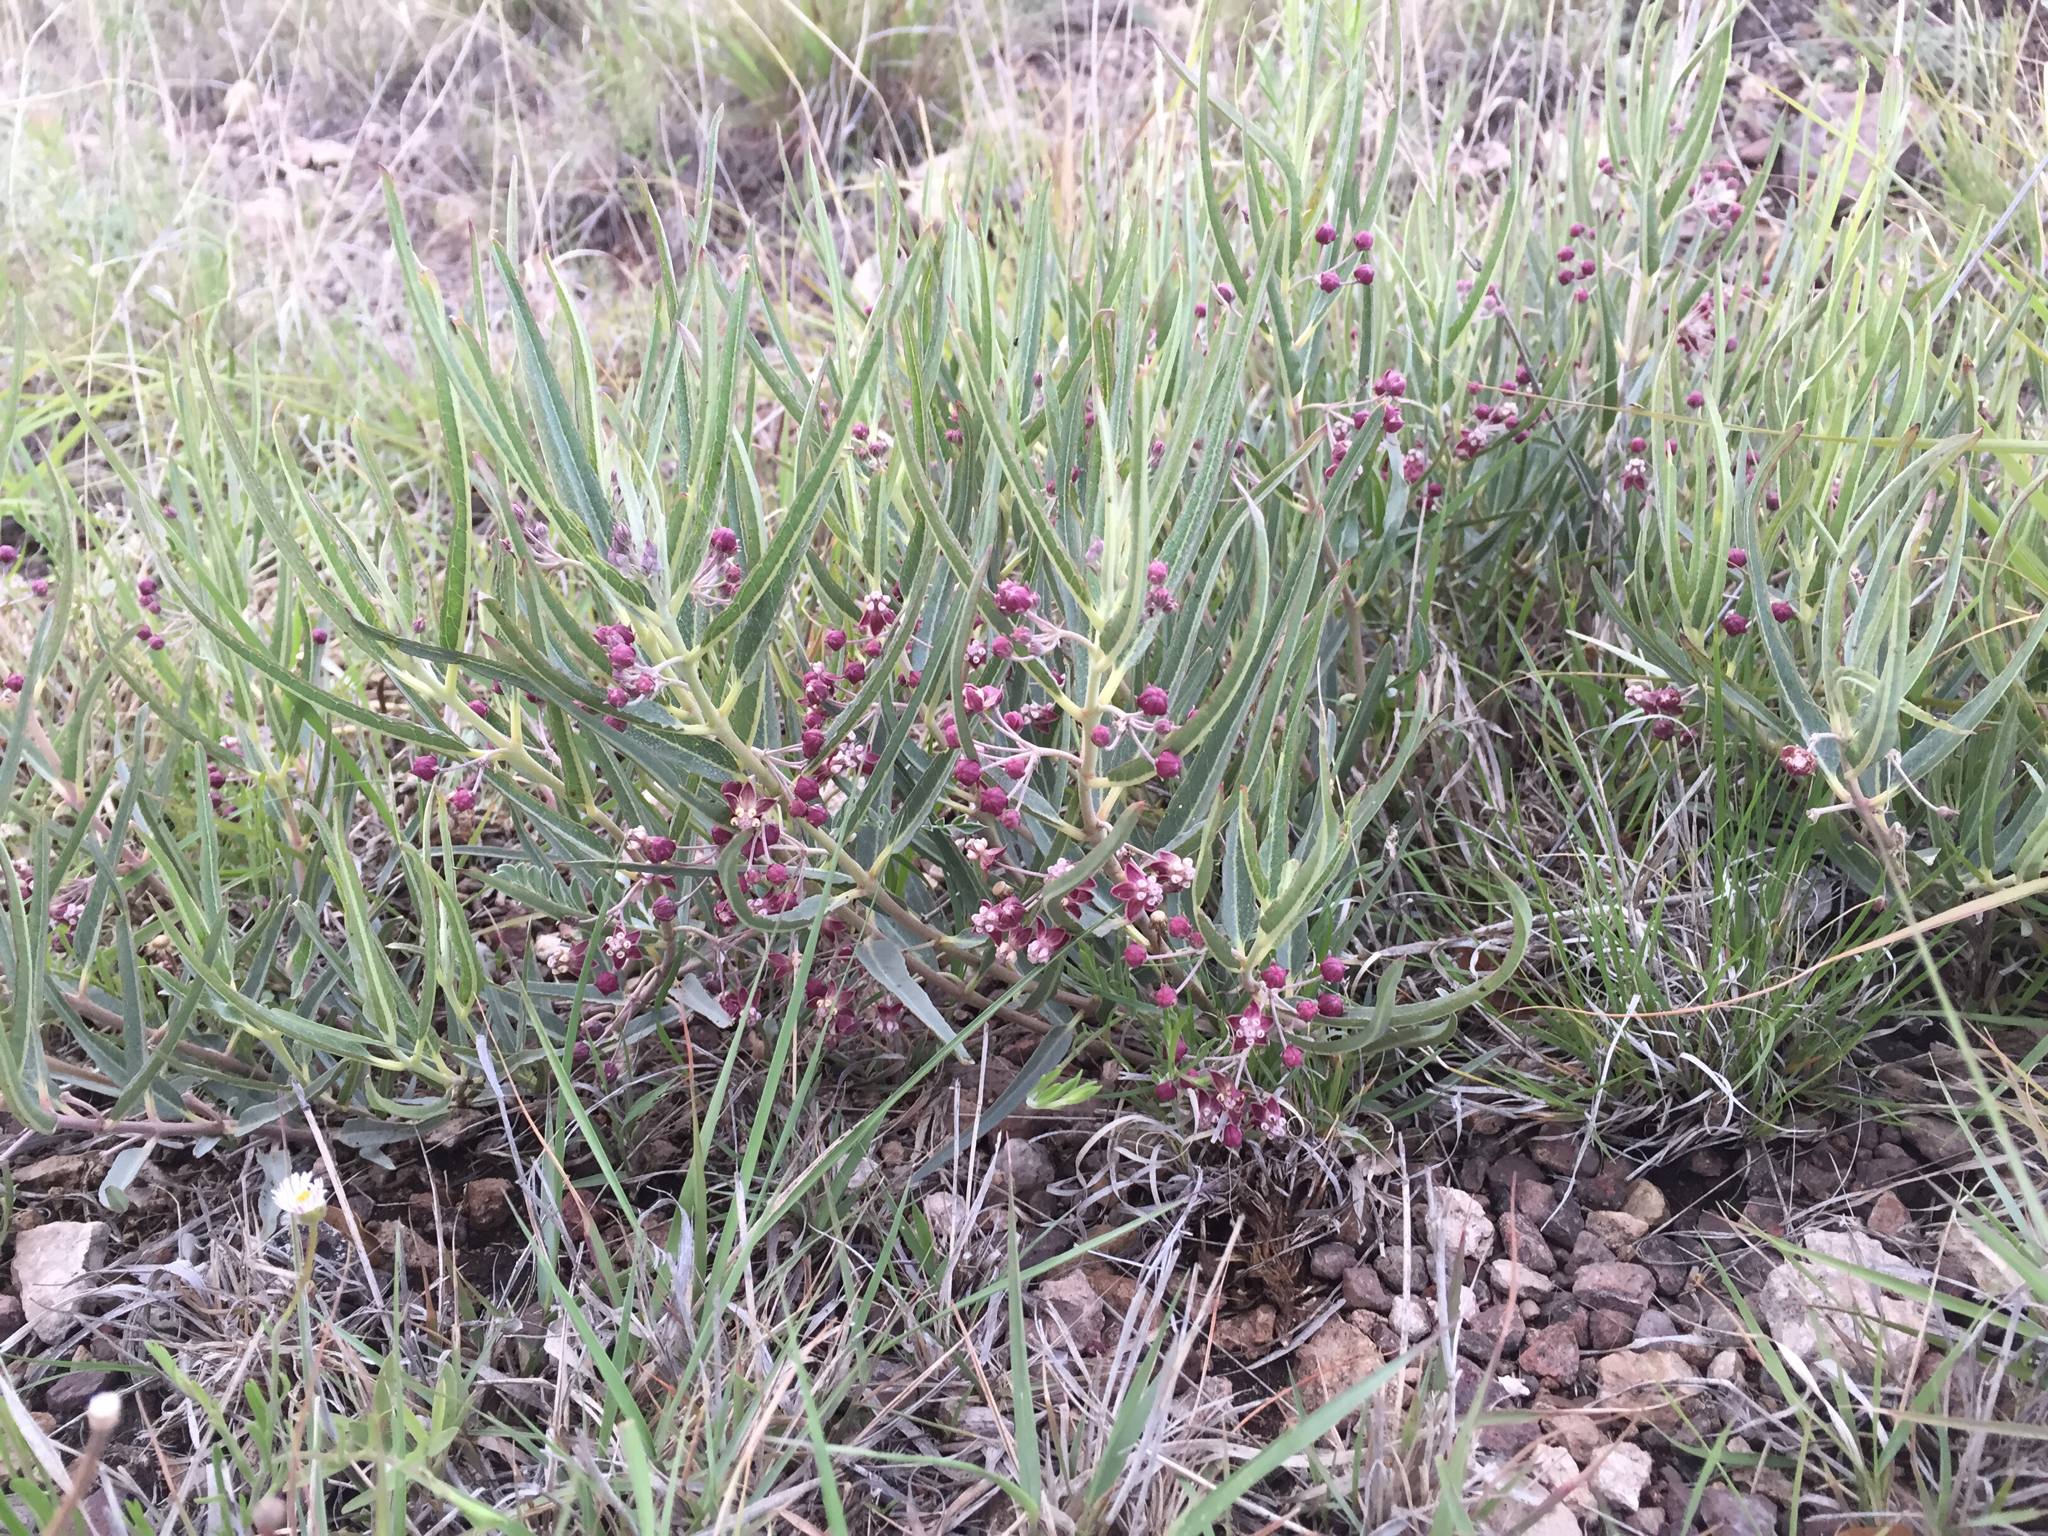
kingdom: Plantae
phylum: Tracheophyta
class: Magnoliopsida
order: Gentianales
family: Apocynaceae
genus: Asclepias
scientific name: Asclepias brachystephana
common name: Shortcrown milkweed
